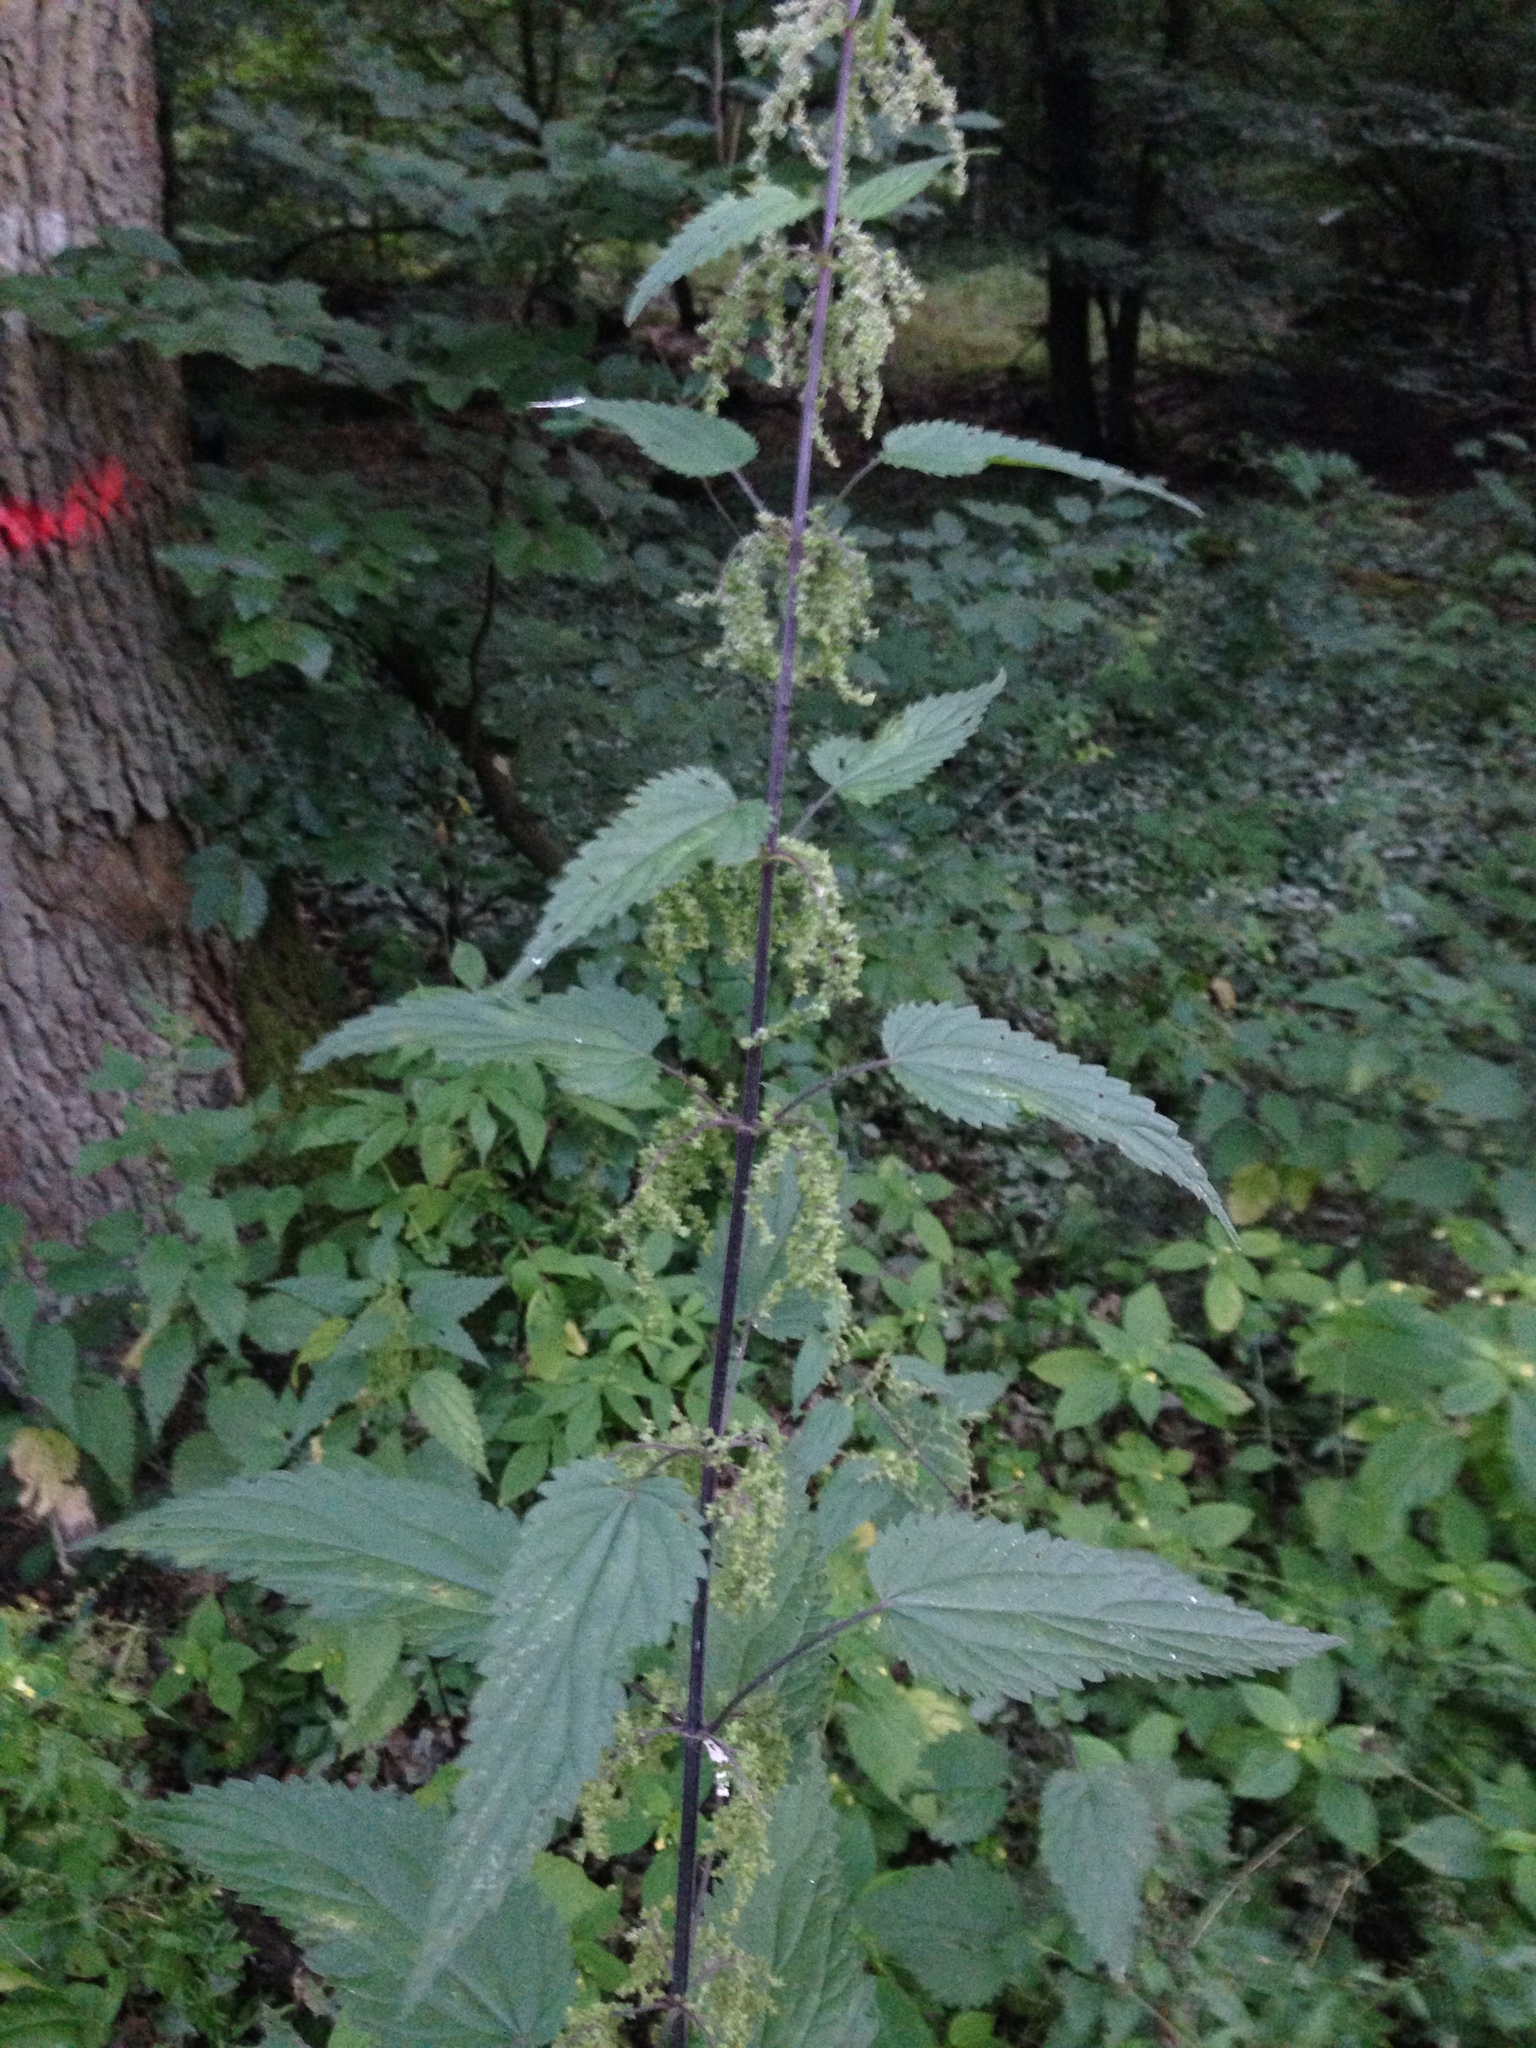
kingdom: Plantae
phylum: Tracheophyta
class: Magnoliopsida
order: Rosales
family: Urticaceae
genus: Urtica
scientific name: Urtica dioica
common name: Common nettle
